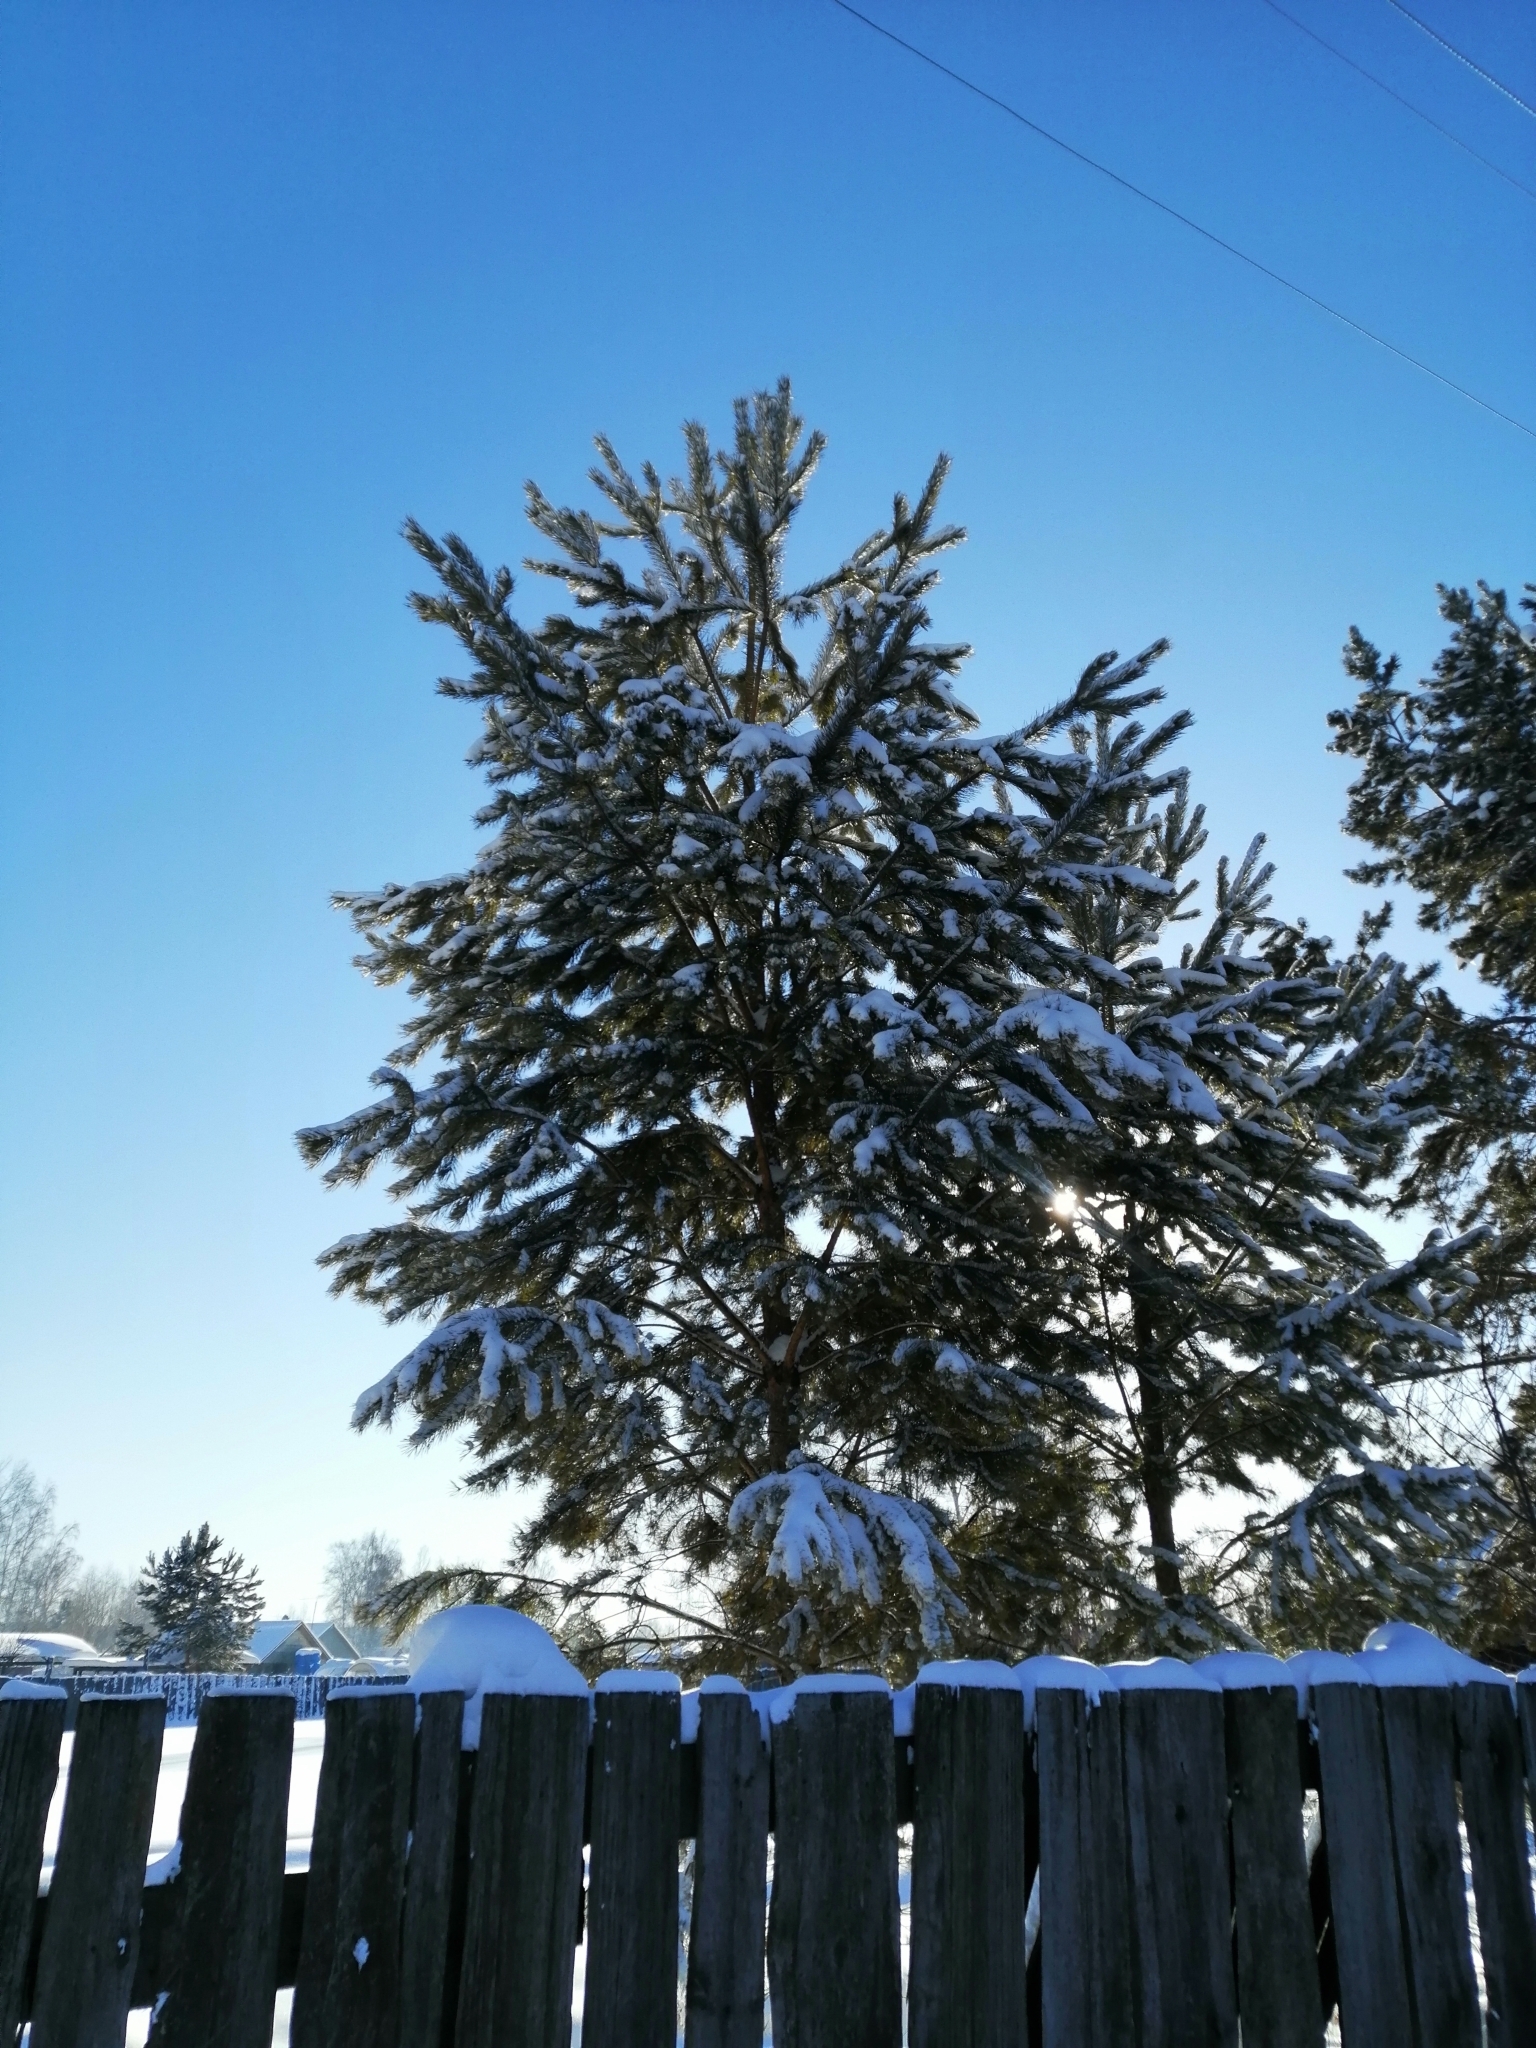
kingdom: Plantae
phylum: Tracheophyta
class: Pinopsida
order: Pinales
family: Pinaceae
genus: Pinus
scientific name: Pinus sylvestris
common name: Scots pine
